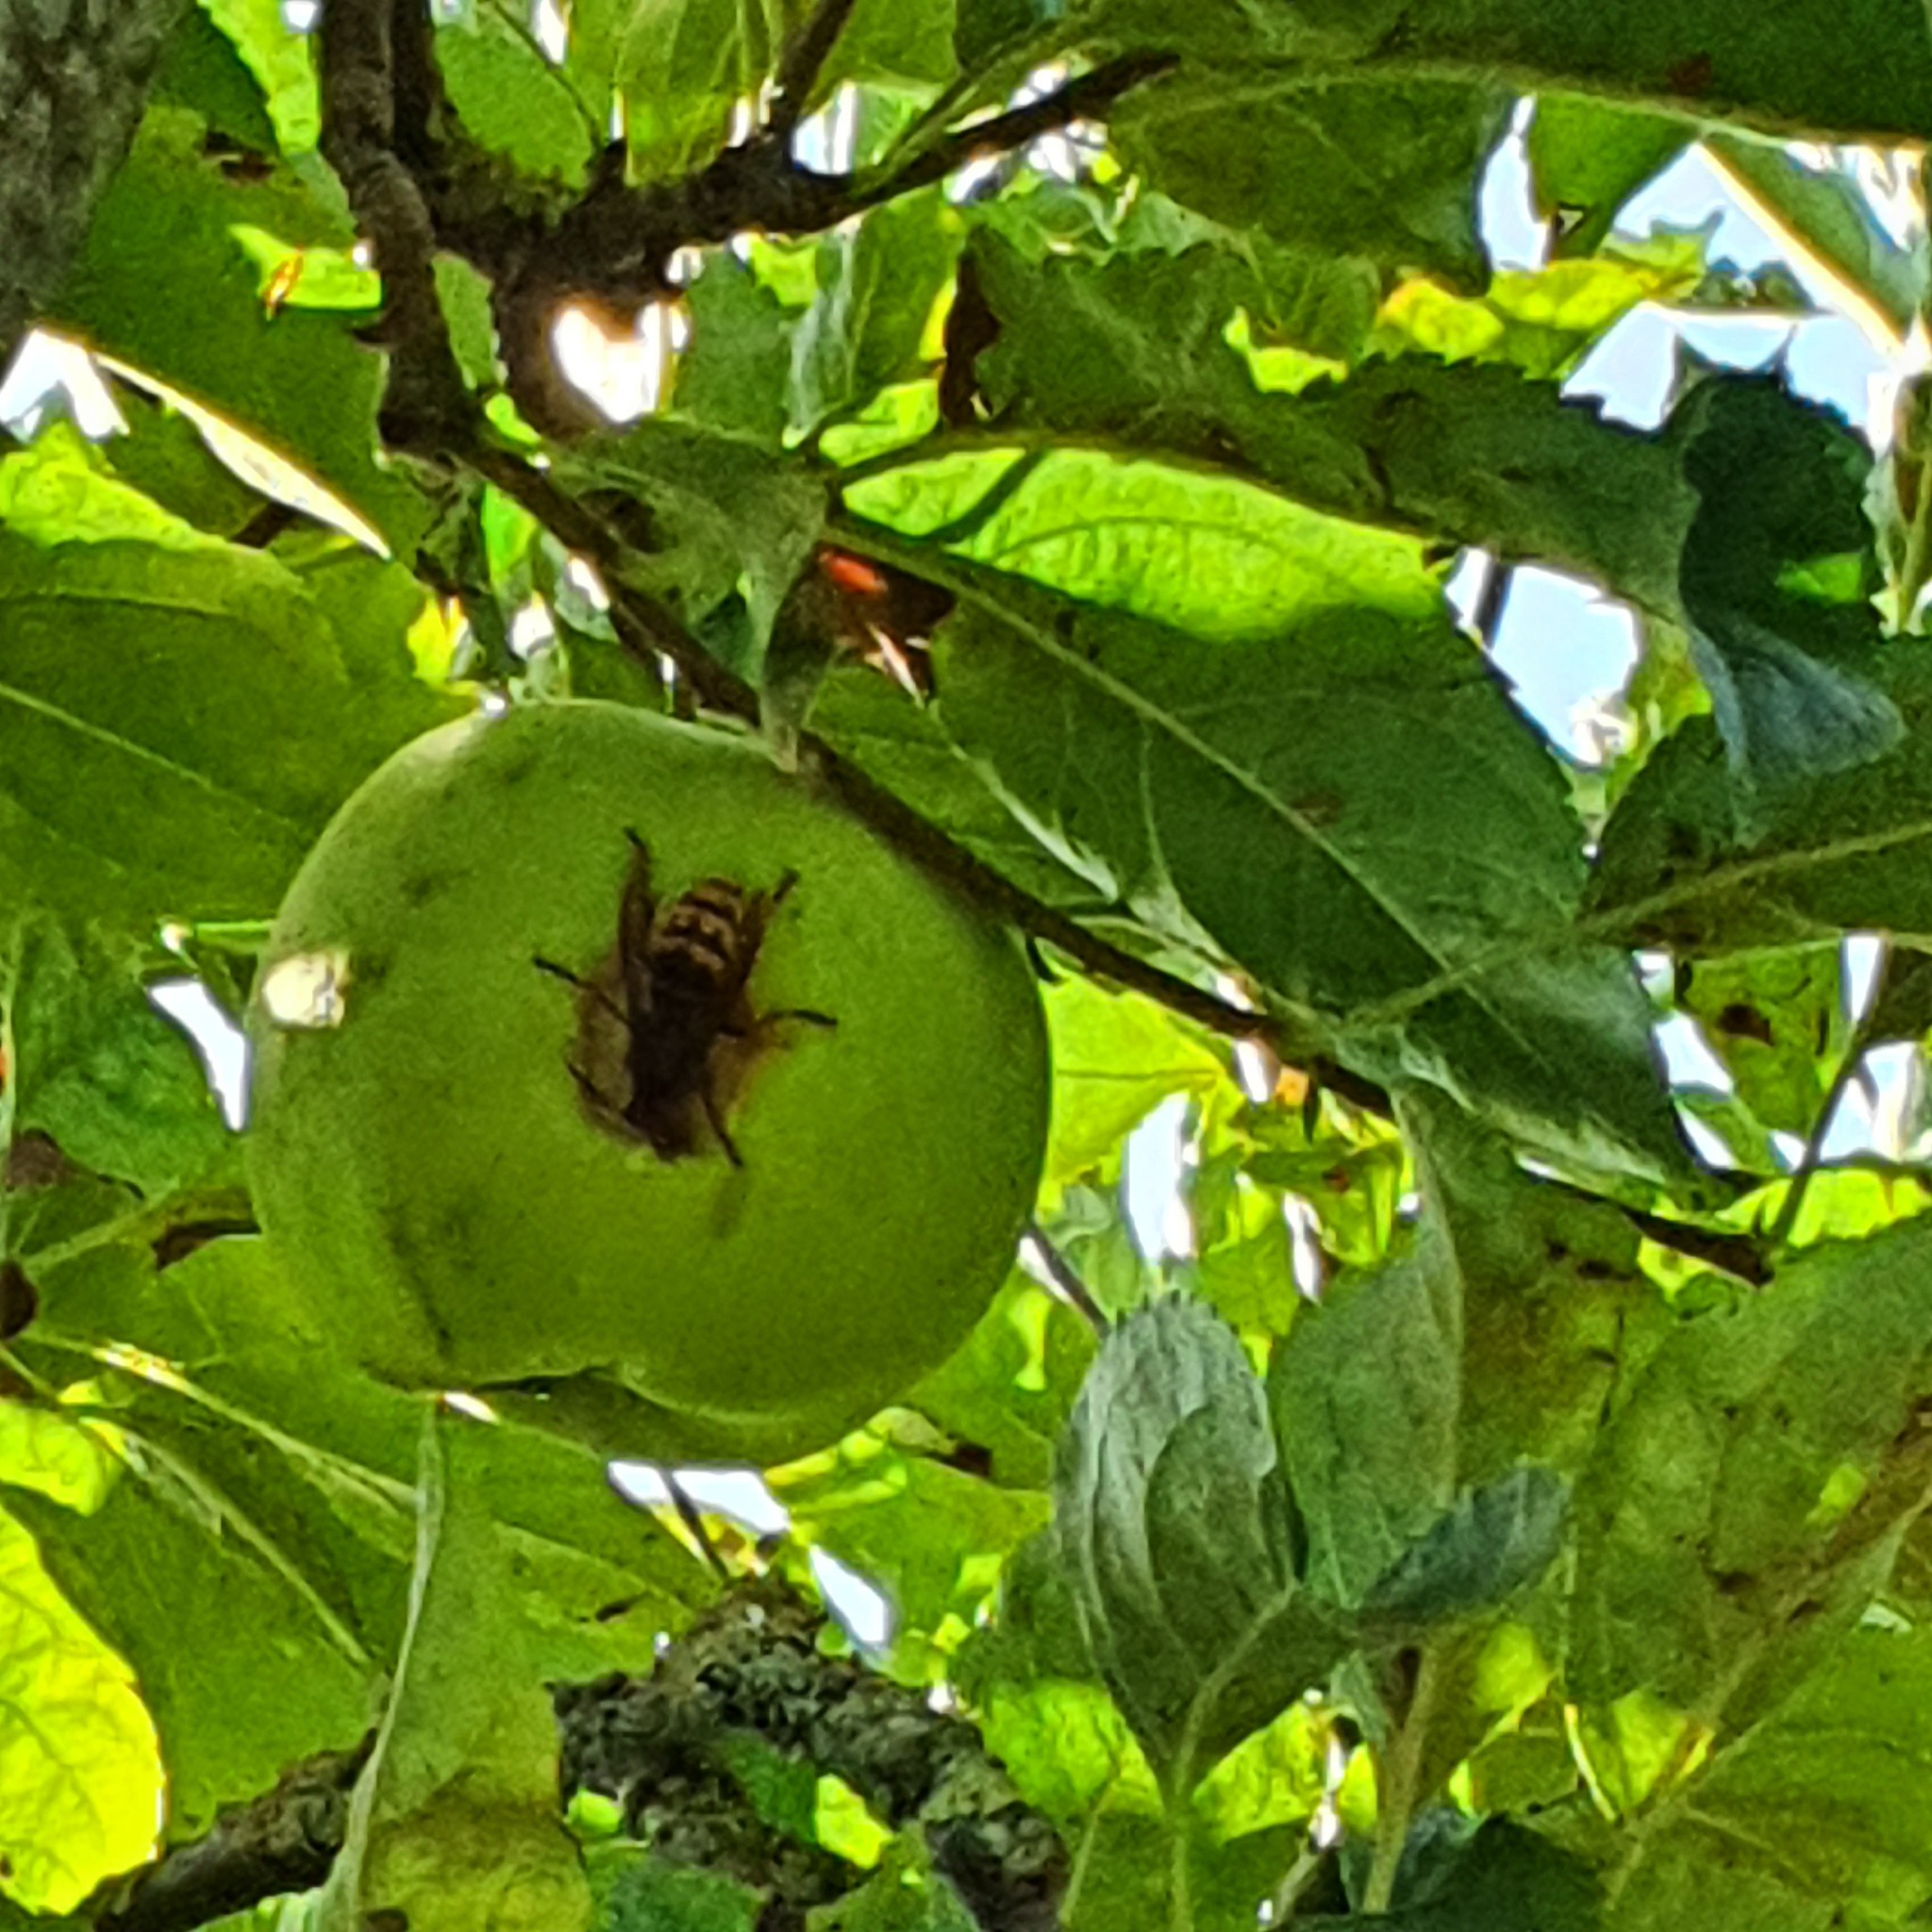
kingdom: Animalia
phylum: Arthropoda
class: Insecta
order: Hymenoptera
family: Vespidae
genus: Vespa
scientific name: Vespa crabro
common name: Hornet
